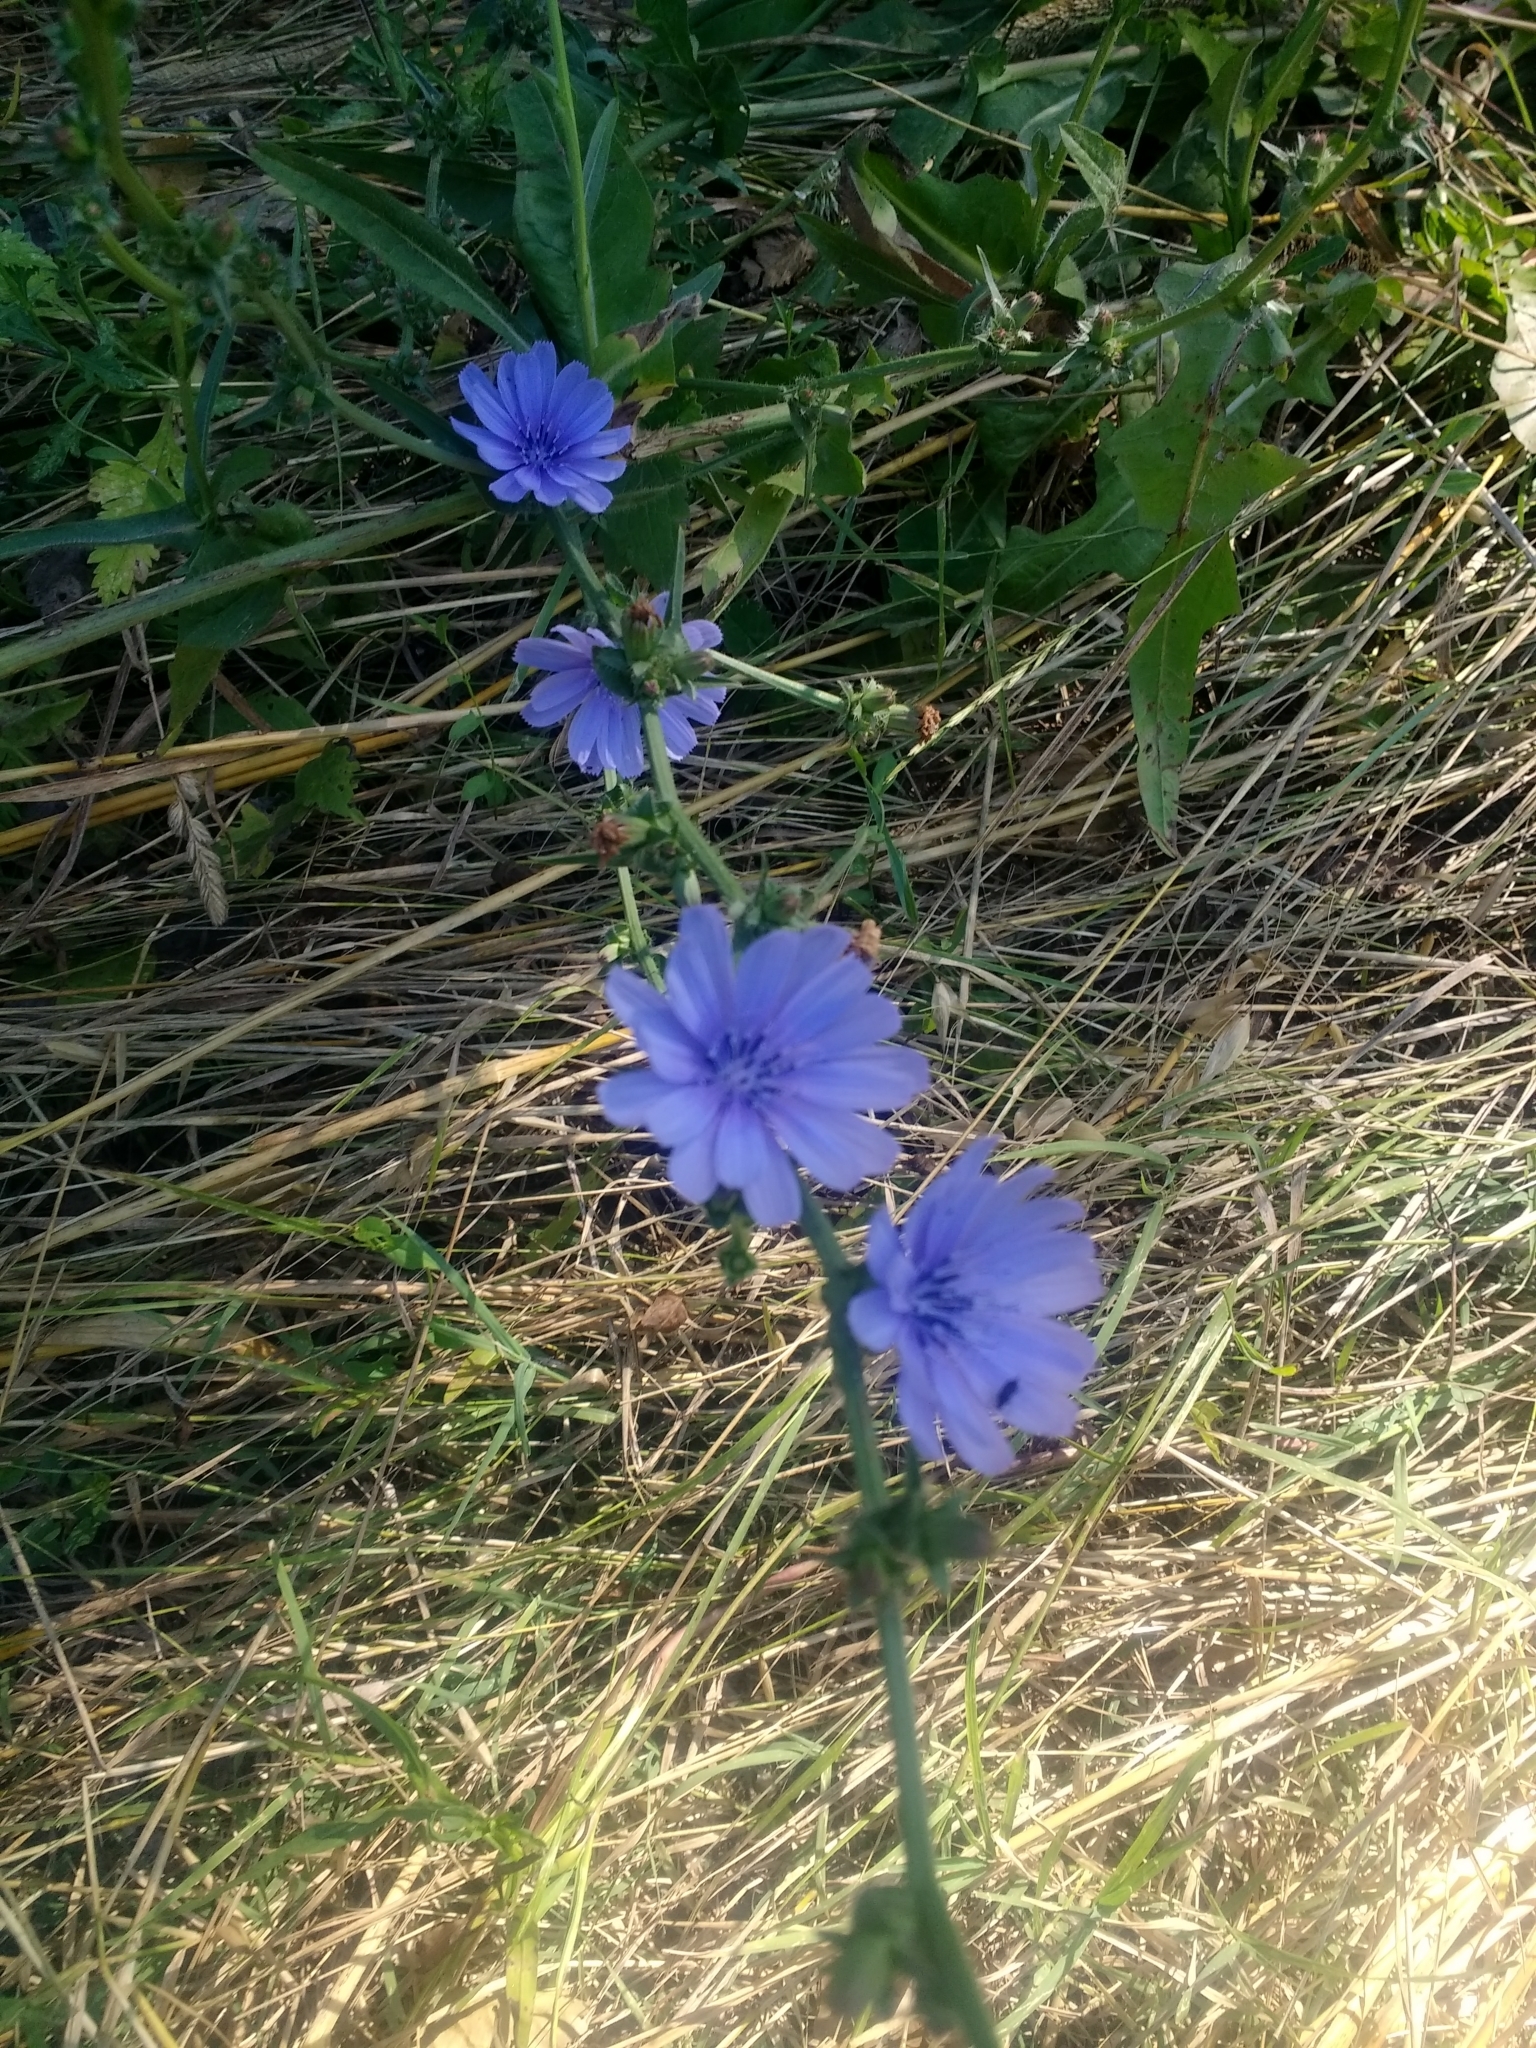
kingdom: Plantae
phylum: Tracheophyta
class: Magnoliopsida
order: Asterales
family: Asteraceae
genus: Cichorium
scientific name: Cichorium intybus
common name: Chicory
